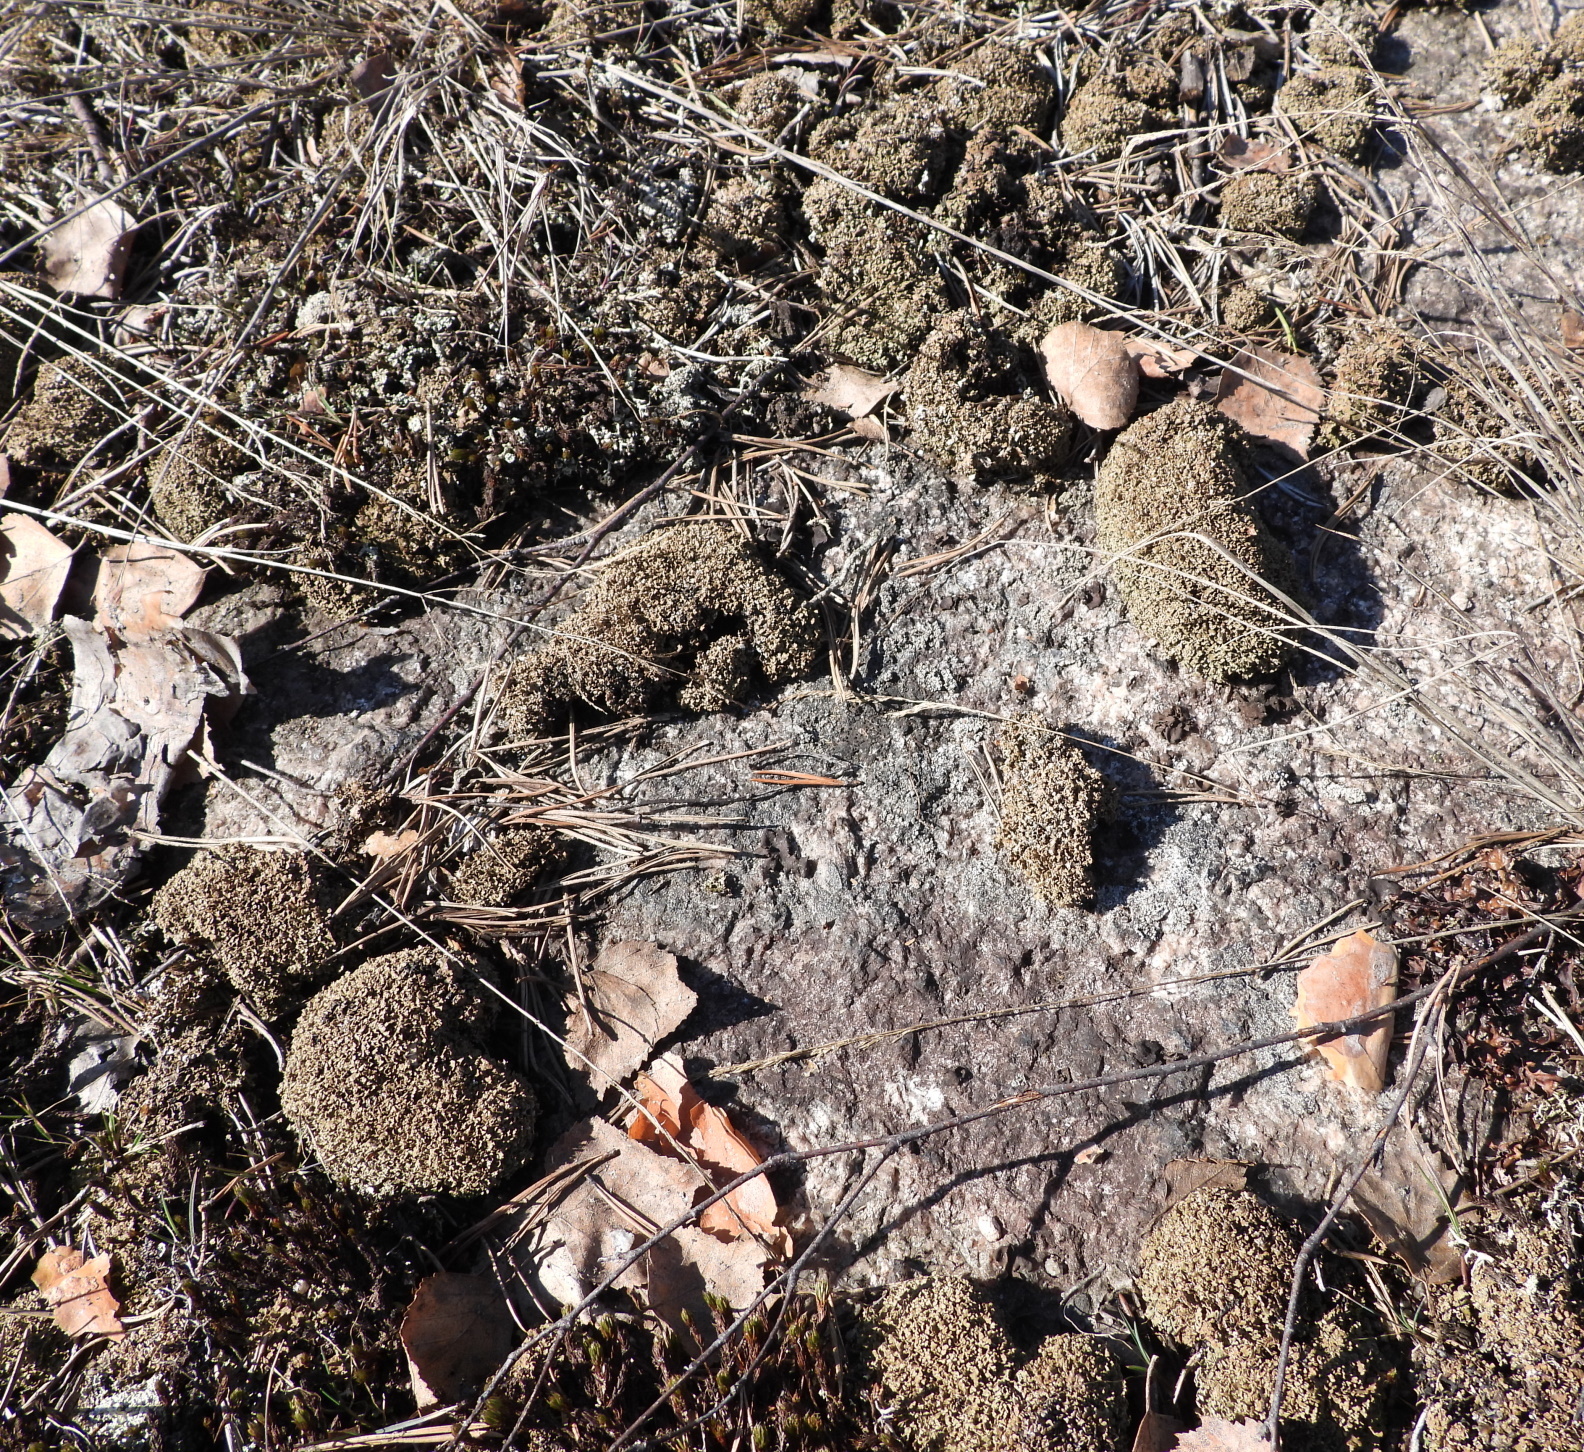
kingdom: Fungi
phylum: Ascomycota
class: Lecanoromycetes
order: Lecanorales
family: Cladoniaceae
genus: Cladonia
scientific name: Cladonia strepsilis
